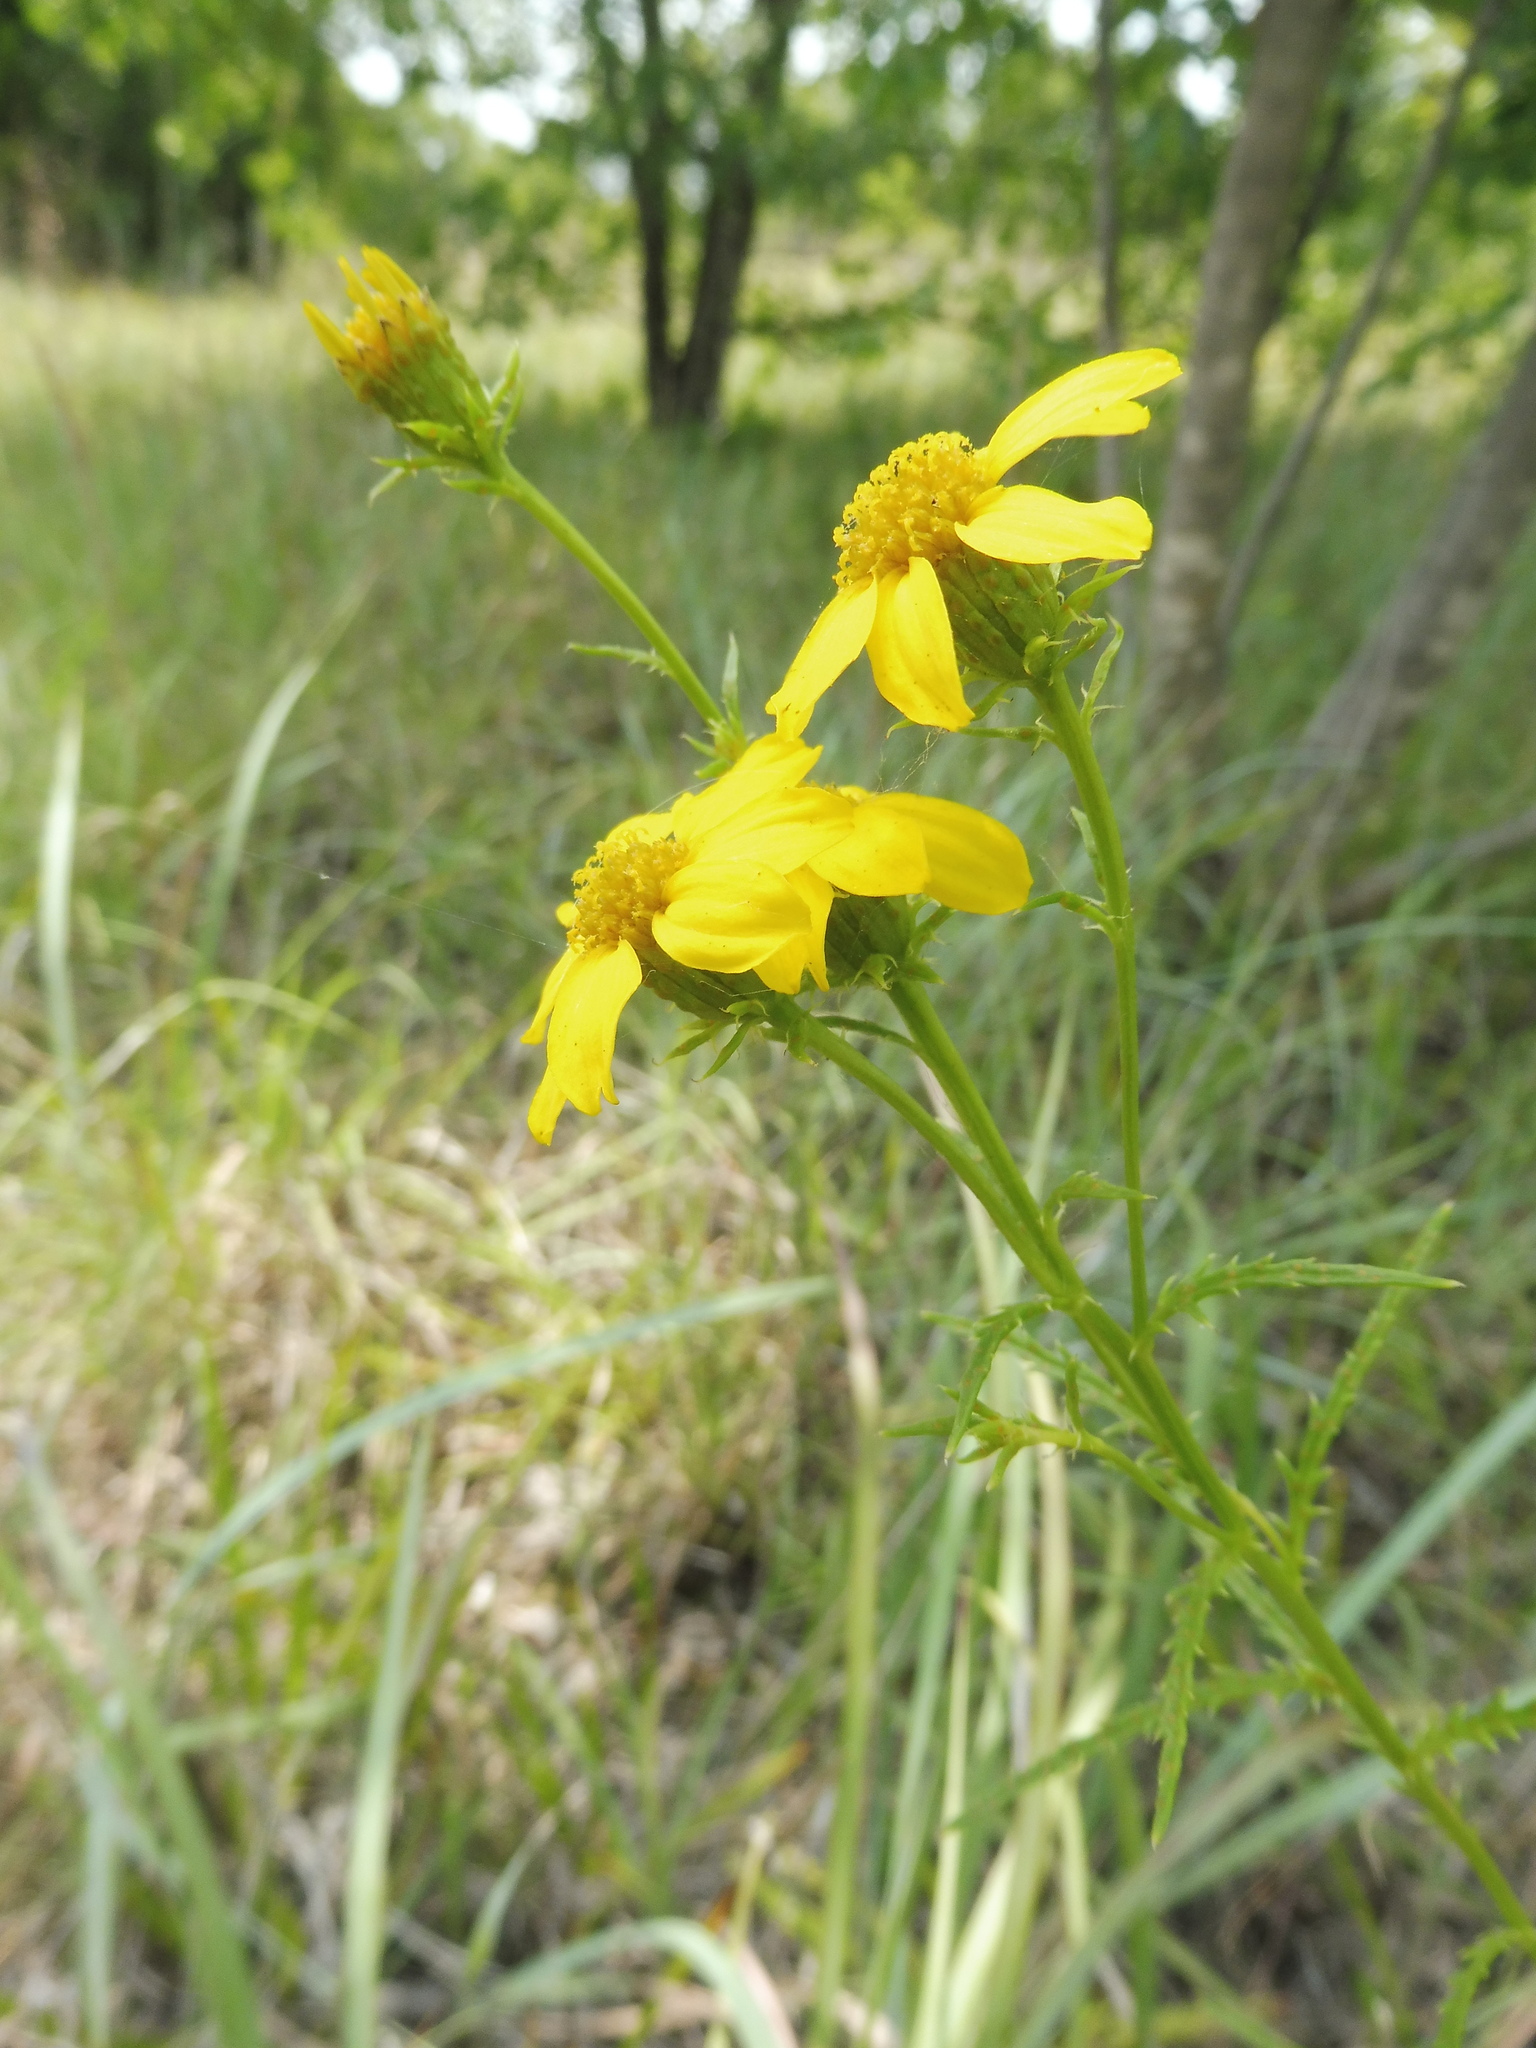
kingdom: Plantae
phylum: Tracheophyta
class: Magnoliopsida
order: Asterales
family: Asteraceae
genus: Dysodiopsis
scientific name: Dysodiopsis tagetoides
